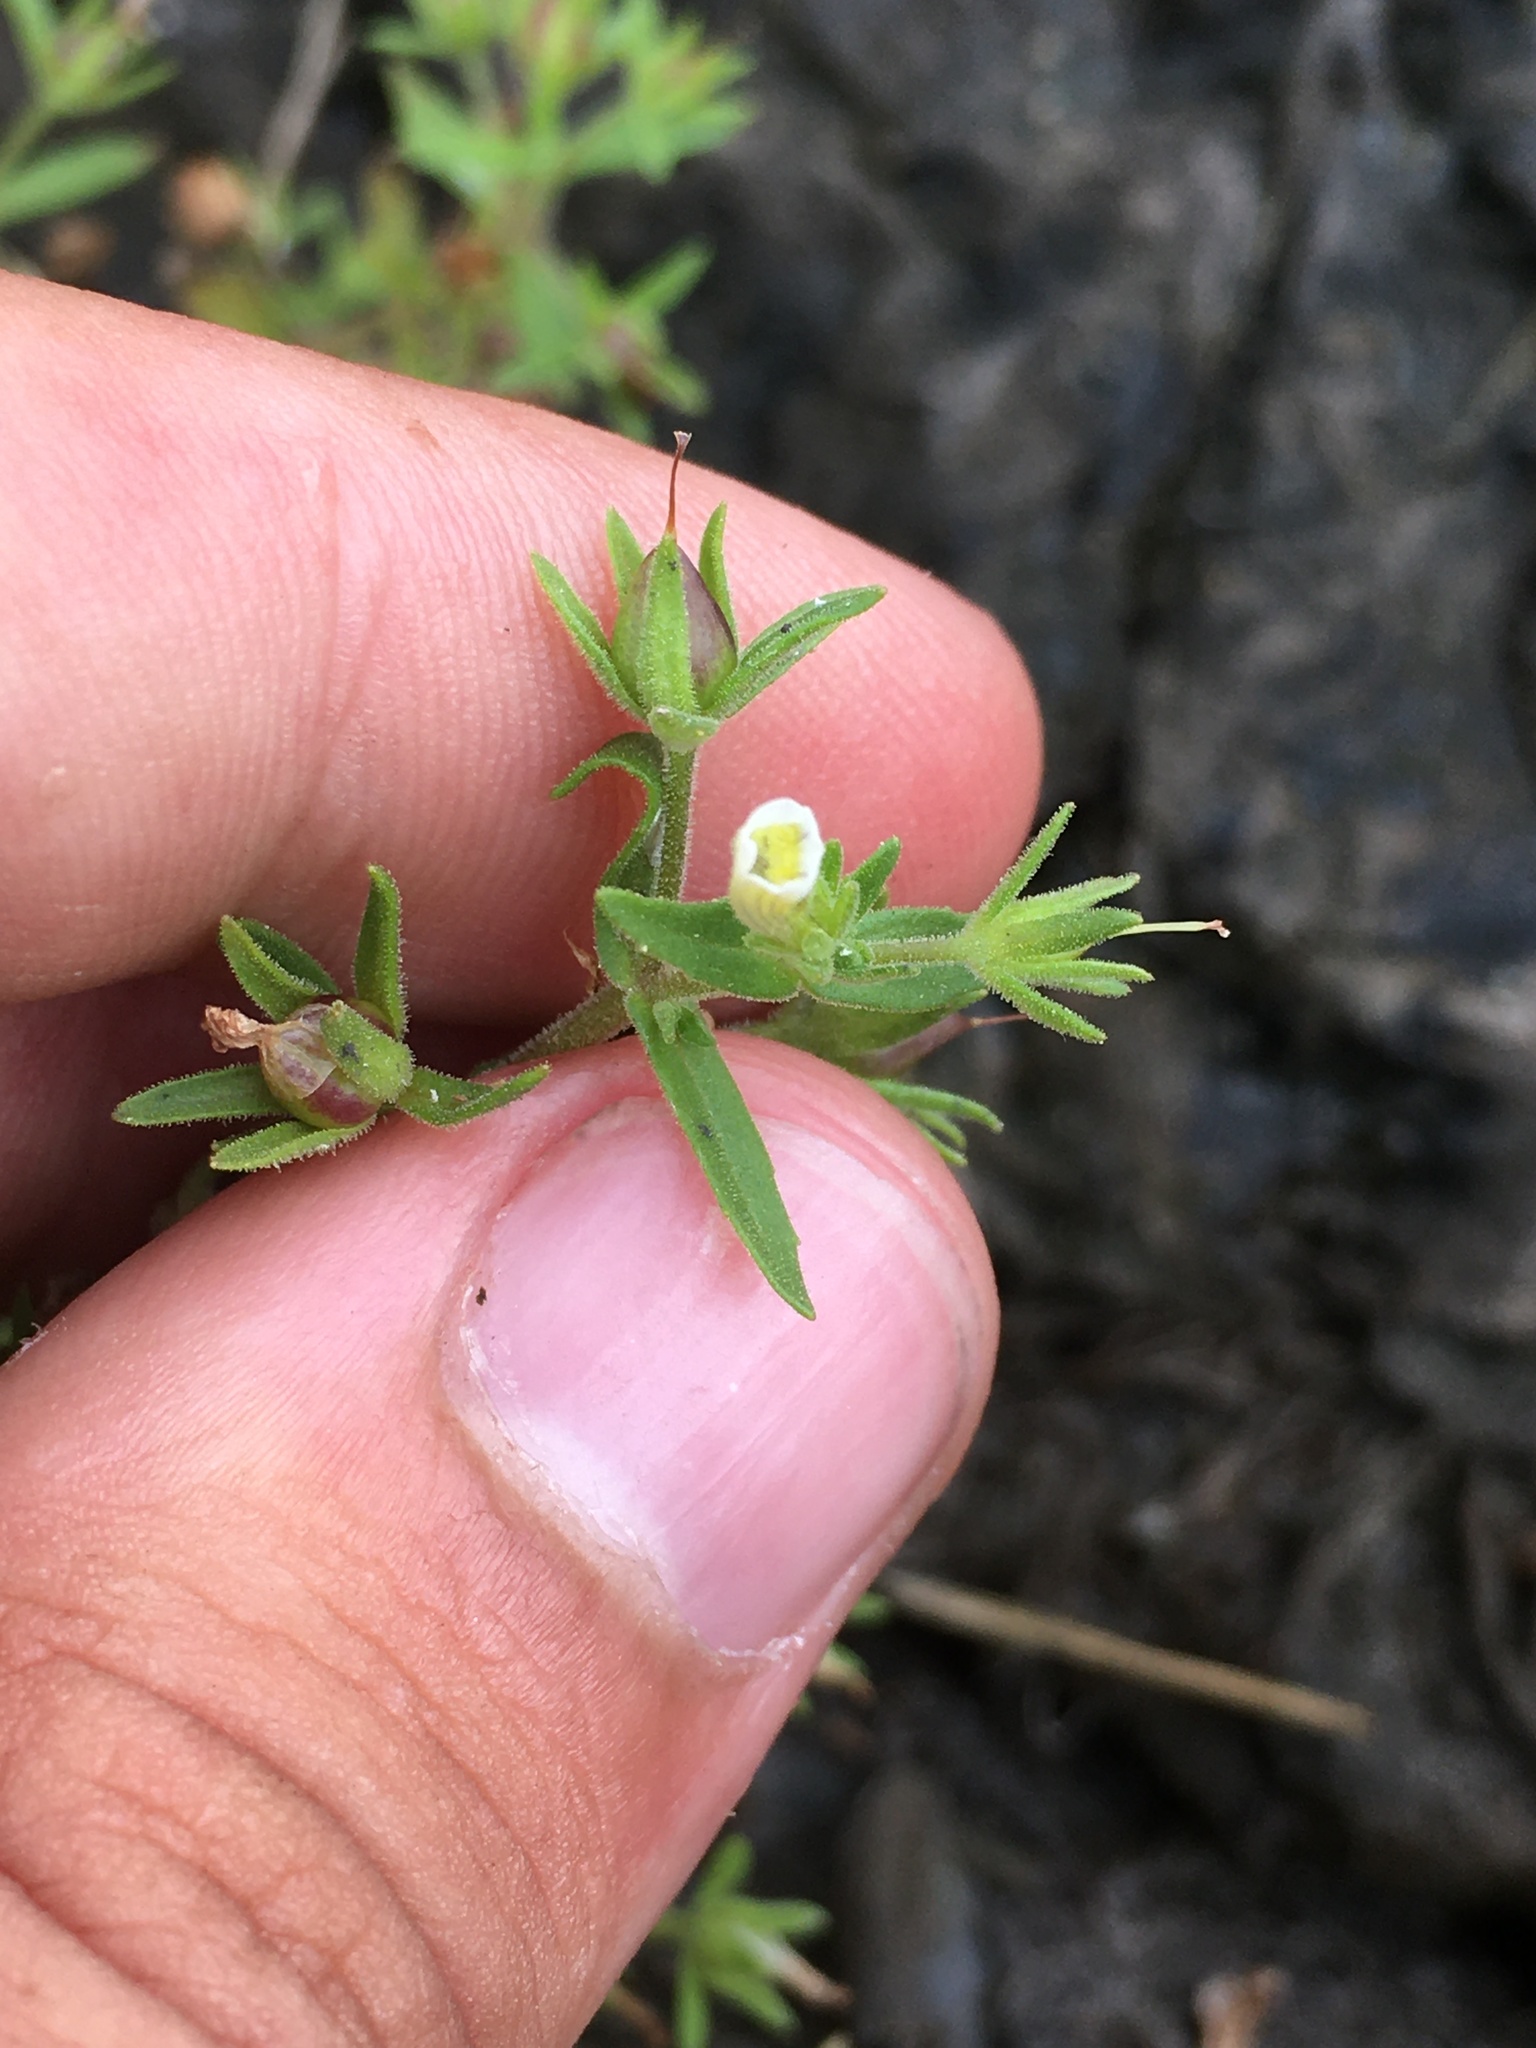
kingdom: Plantae
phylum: Tracheophyta
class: Magnoliopsida
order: Lamiales
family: Plantaginaceae
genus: Gratiola
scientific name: Gratiola neglecta
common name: American hedge-hyssop
